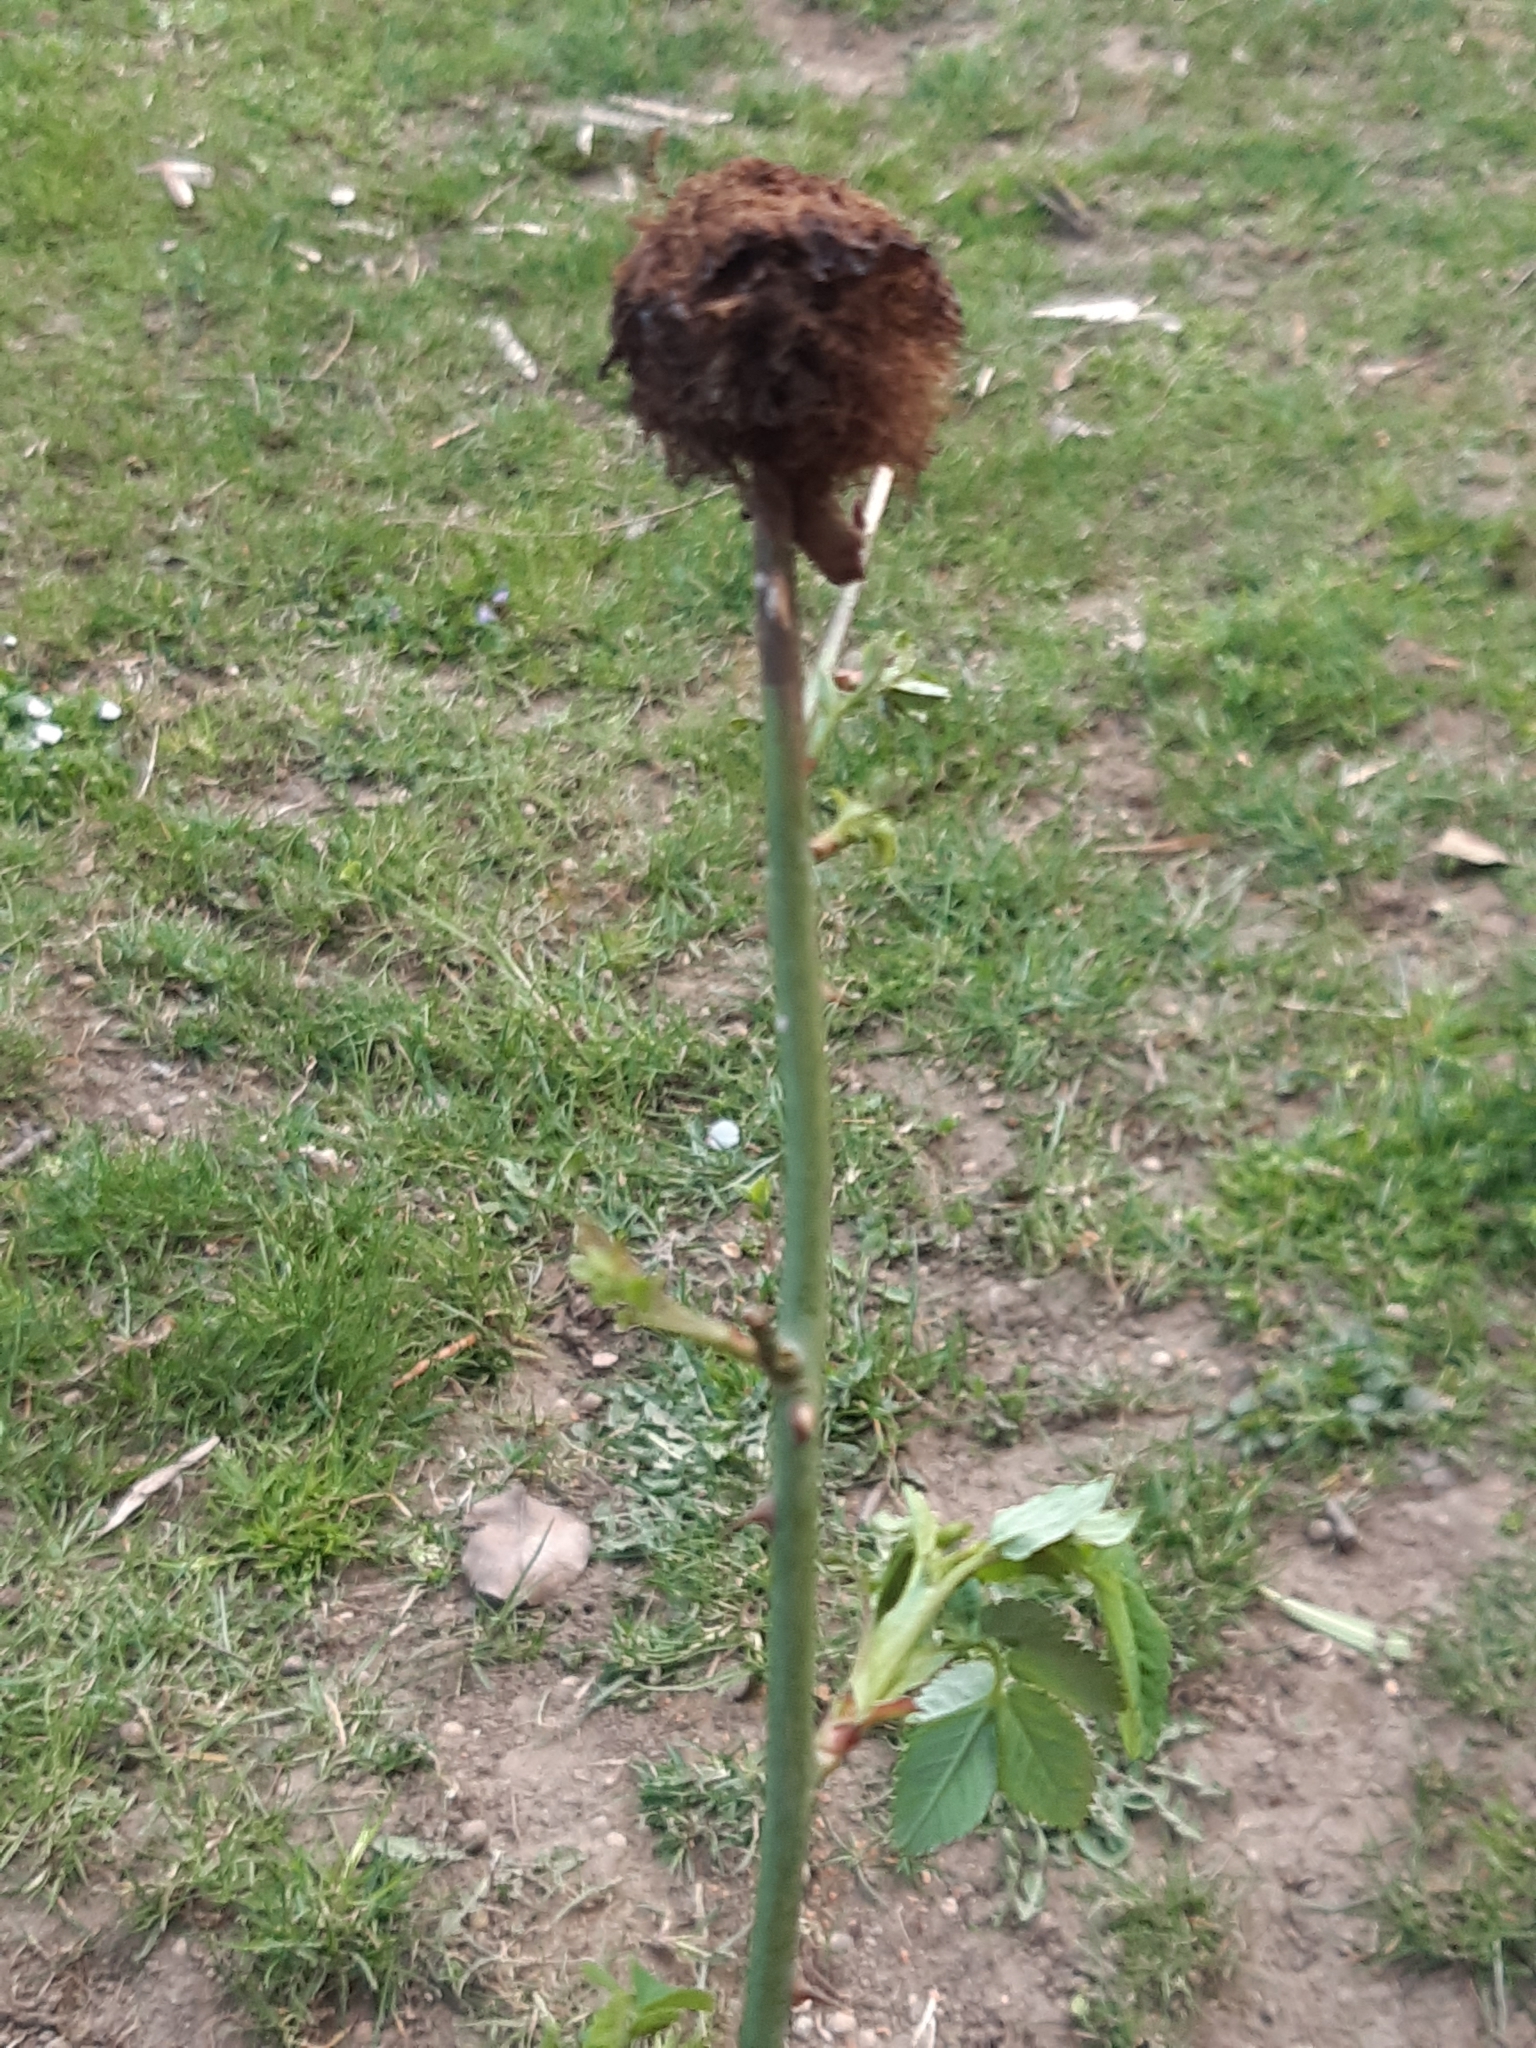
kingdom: Animalia
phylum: Arthropoda
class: Insecta
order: Hymenoptera
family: Cynipidae
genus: Diplolepis
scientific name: Diplolepis rosae
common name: Bedeguar gall
